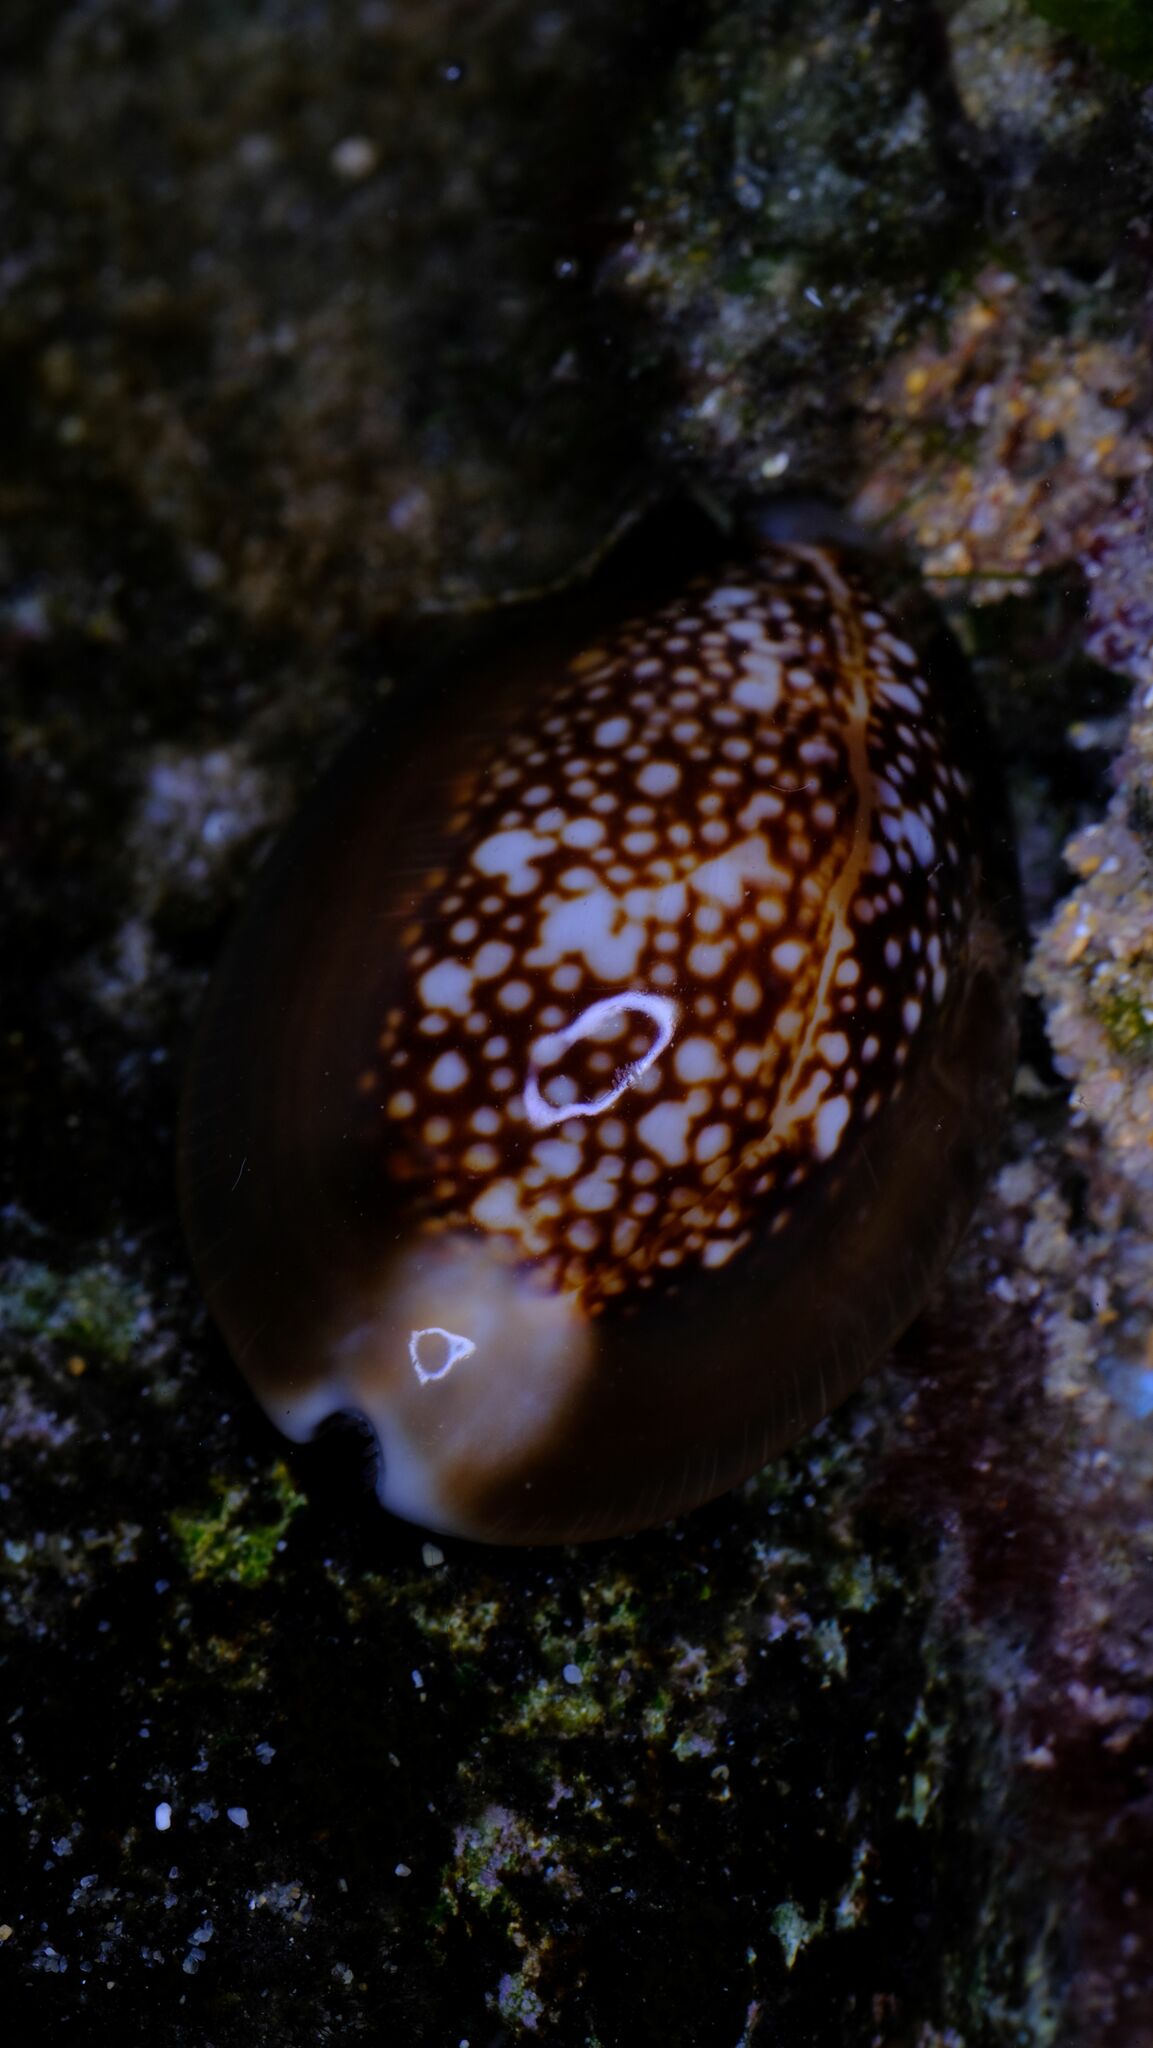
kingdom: Animalia
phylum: Mollusca
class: Gastropoda
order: Littorinimorpha
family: Cypraeidae
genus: Monetaria
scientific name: Monetaria caputserpentis
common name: Serpent's head cowrie
